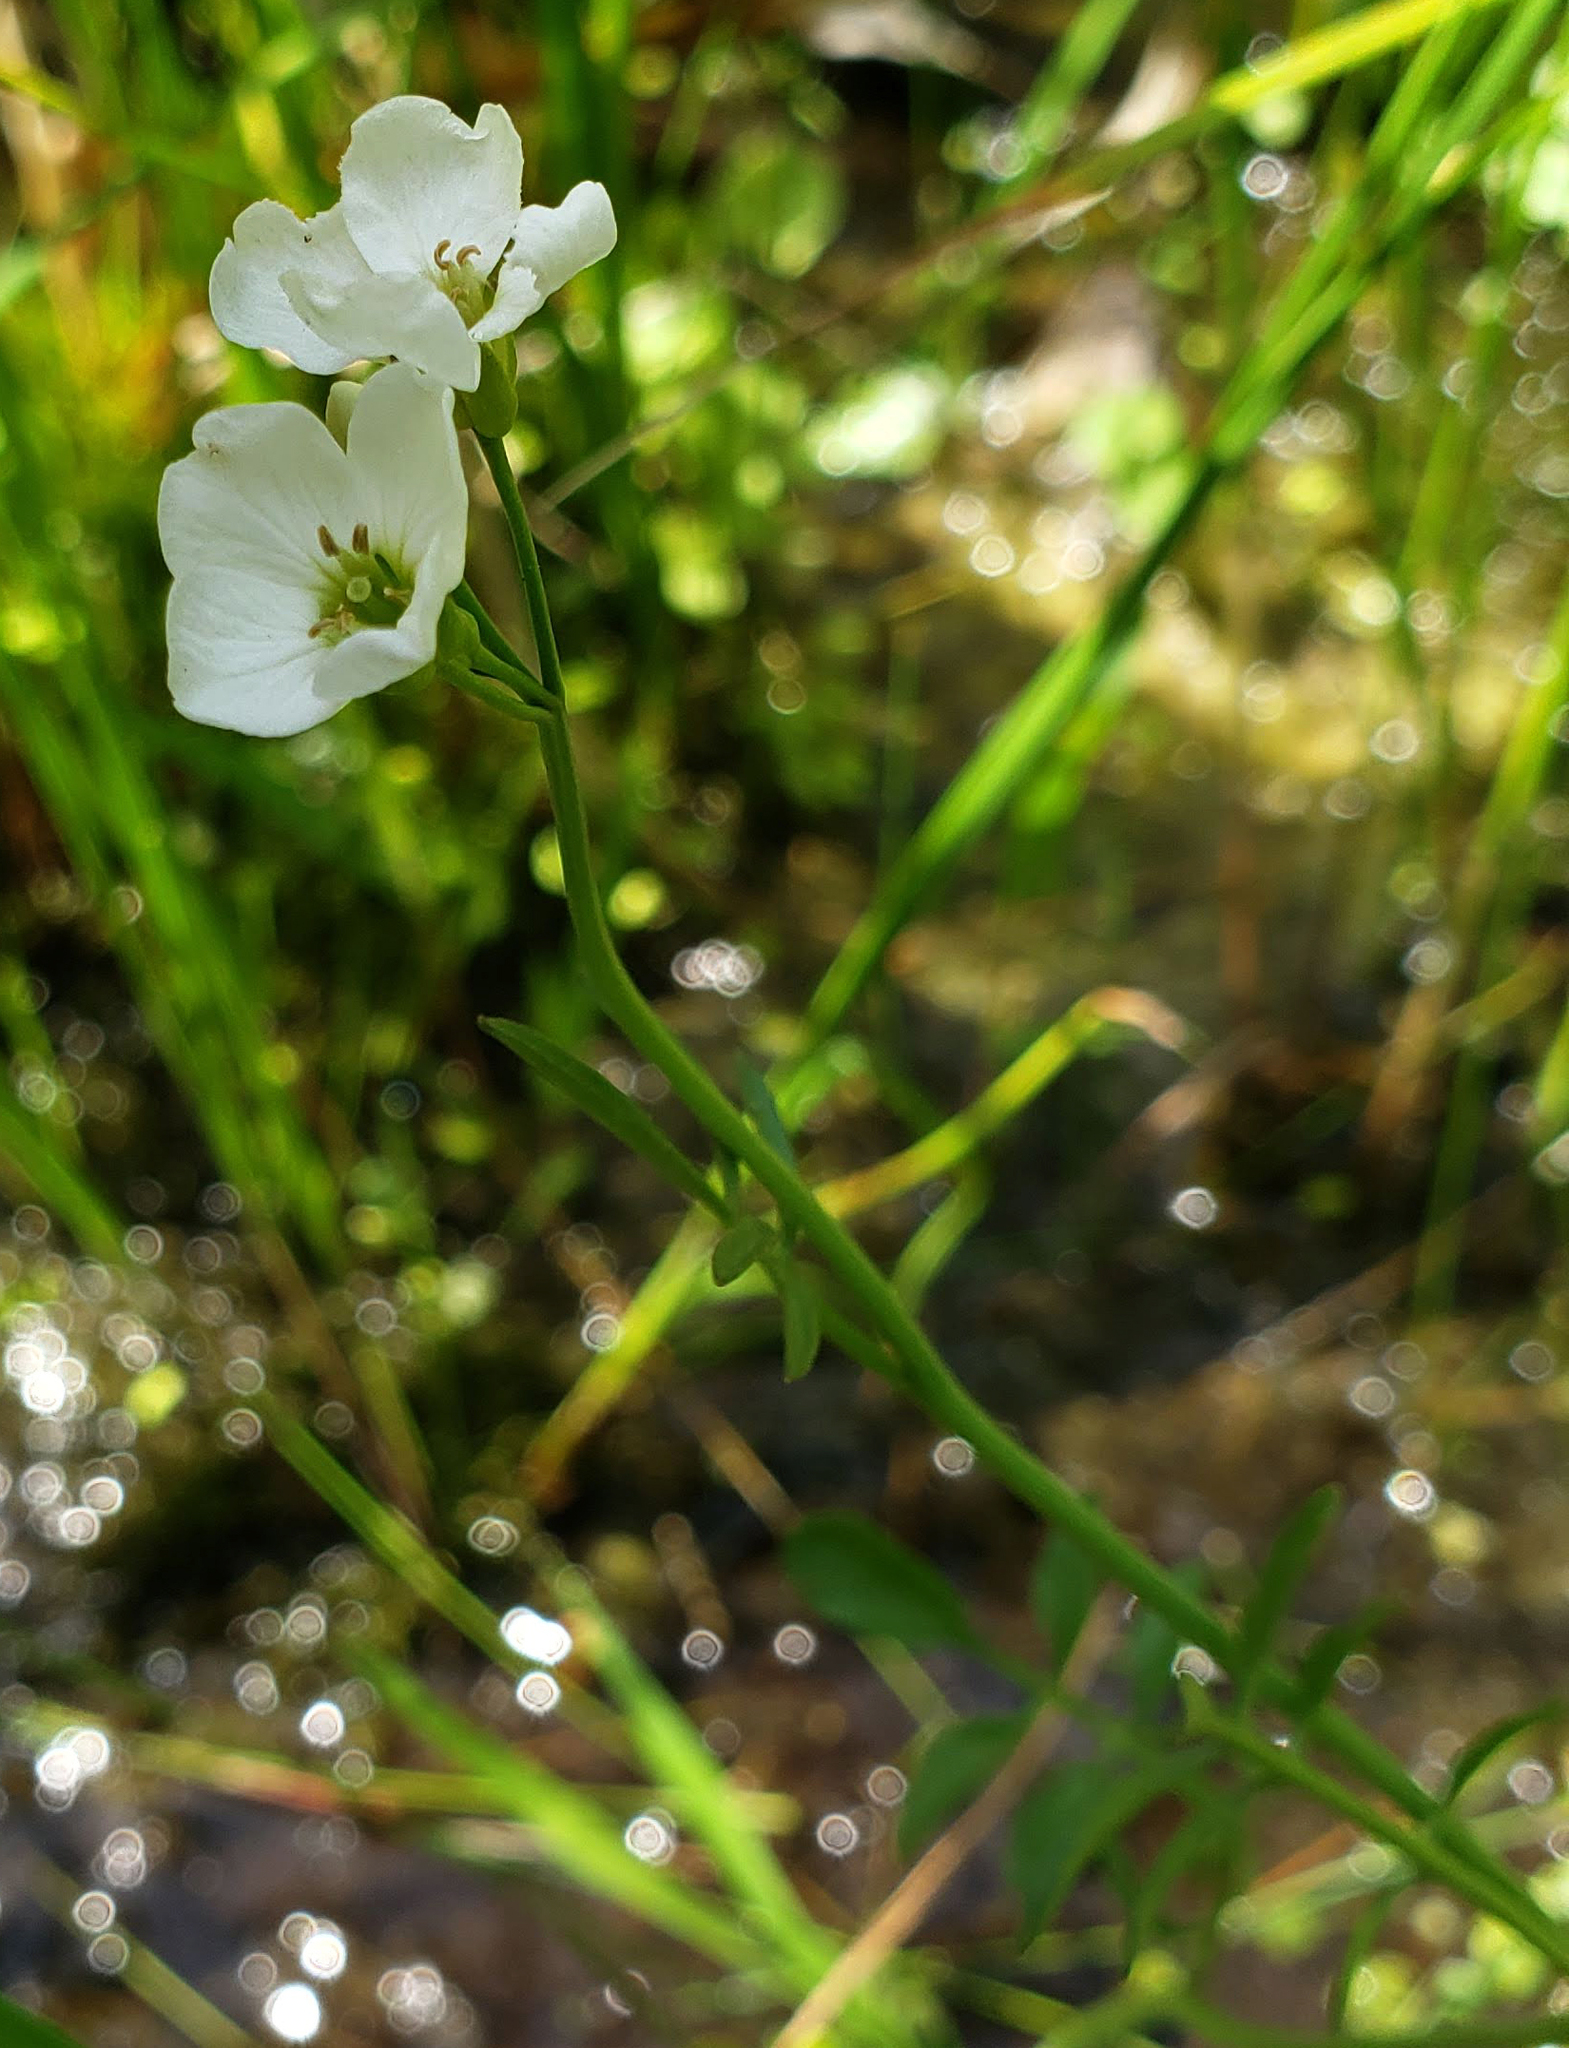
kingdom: Plantae
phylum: Tracheophyta
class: Magnoliopsida
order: Brassicales
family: Brassicaceae
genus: Cardamine
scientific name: Cardamine pratensis
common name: Cuckoo flower
